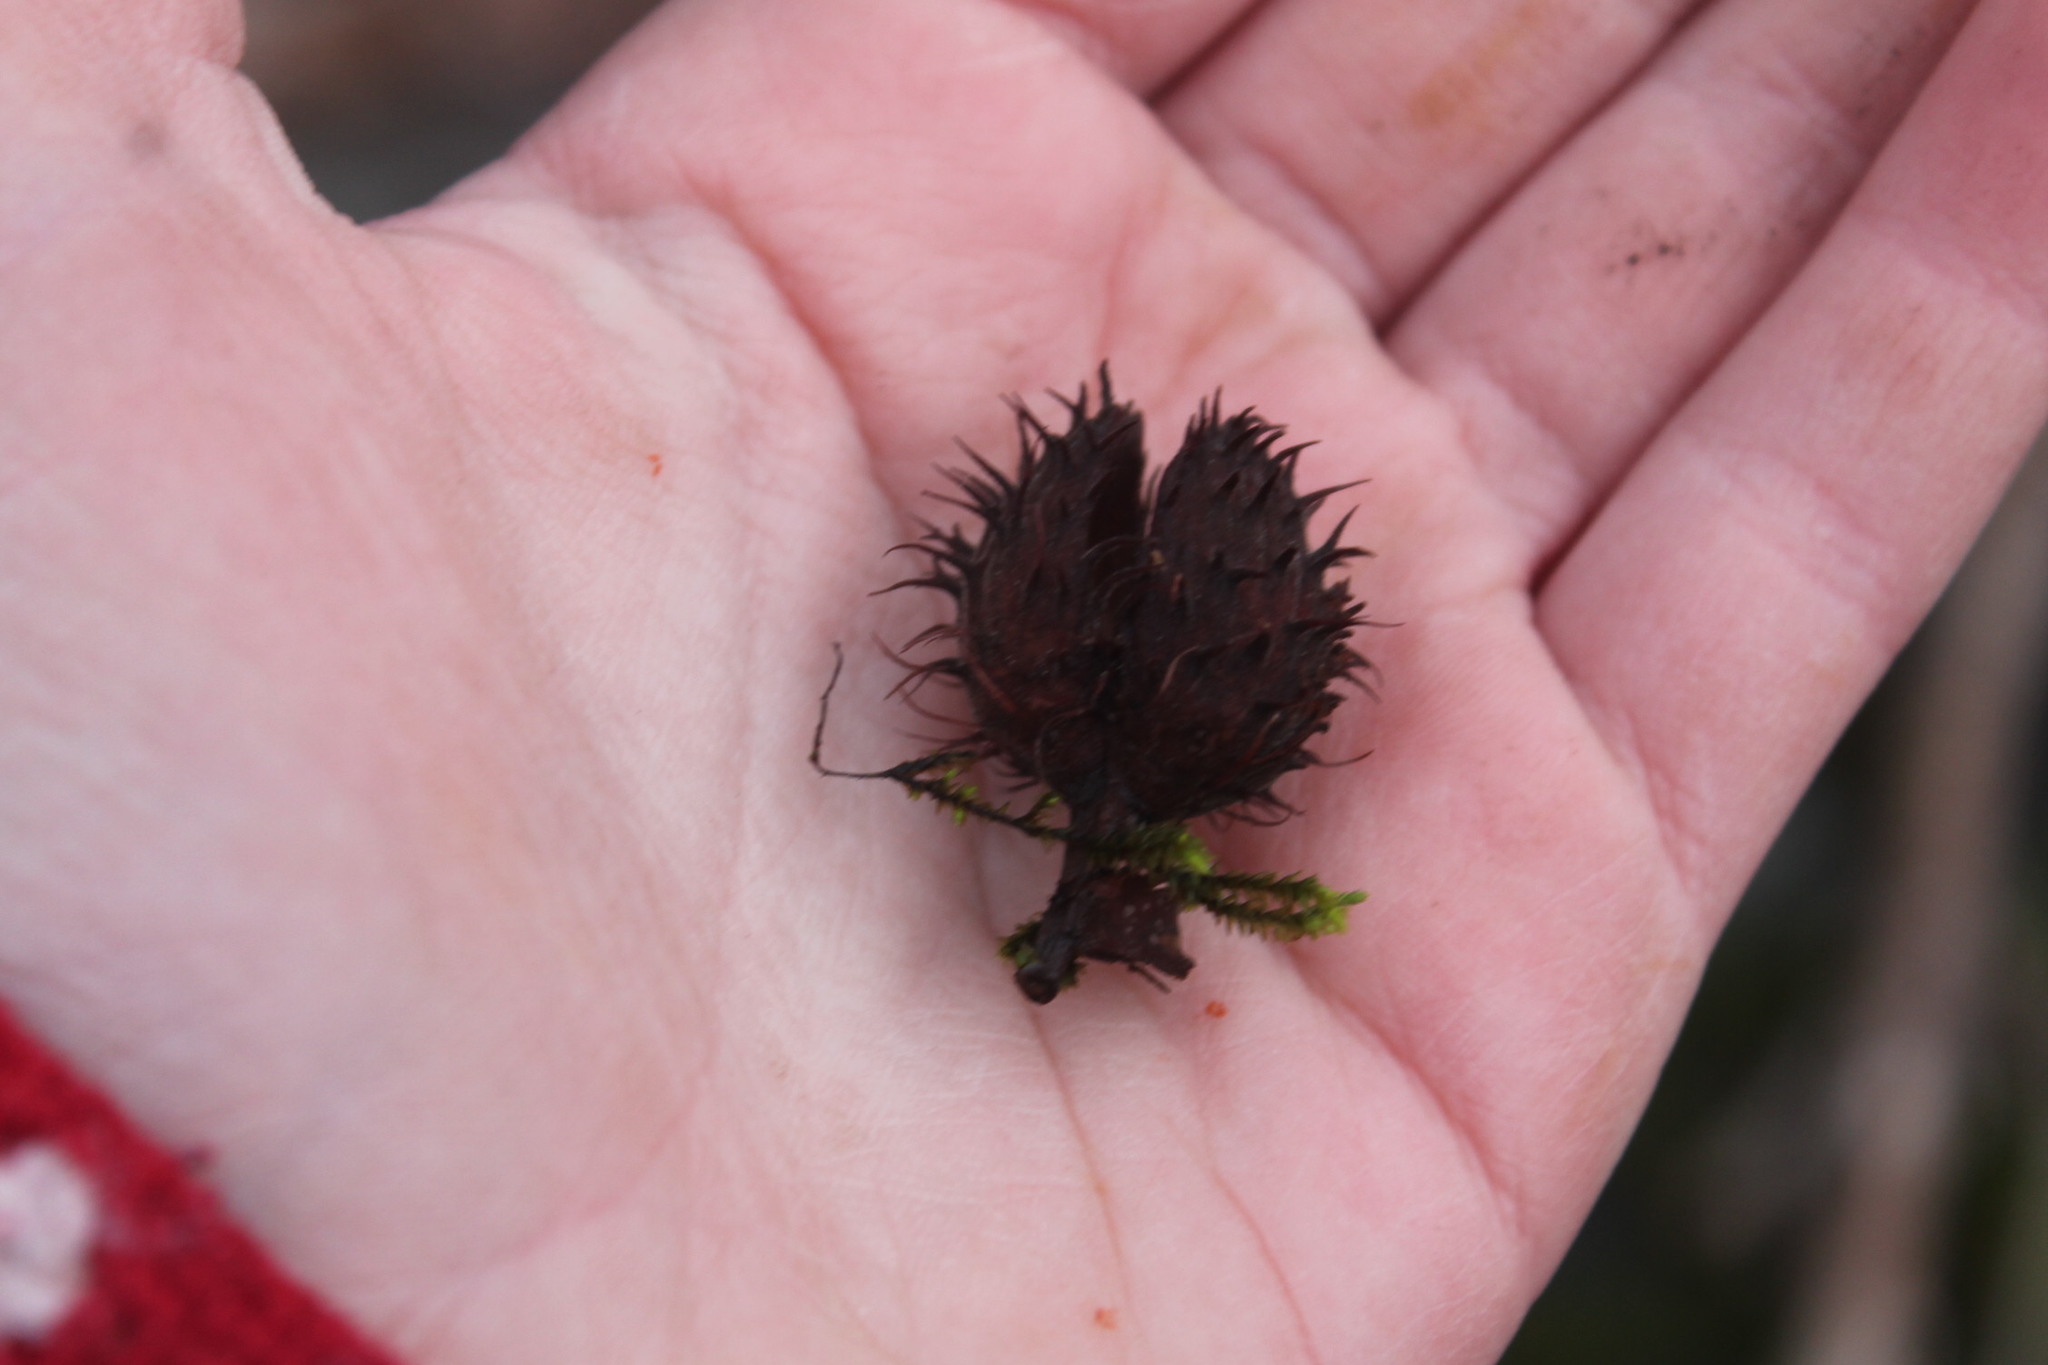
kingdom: Plantae
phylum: Tracheophyta
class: Magnoliopsida
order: Fagales
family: Fagaceae
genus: Fagus
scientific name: Fagus grandifolia
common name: American beech
